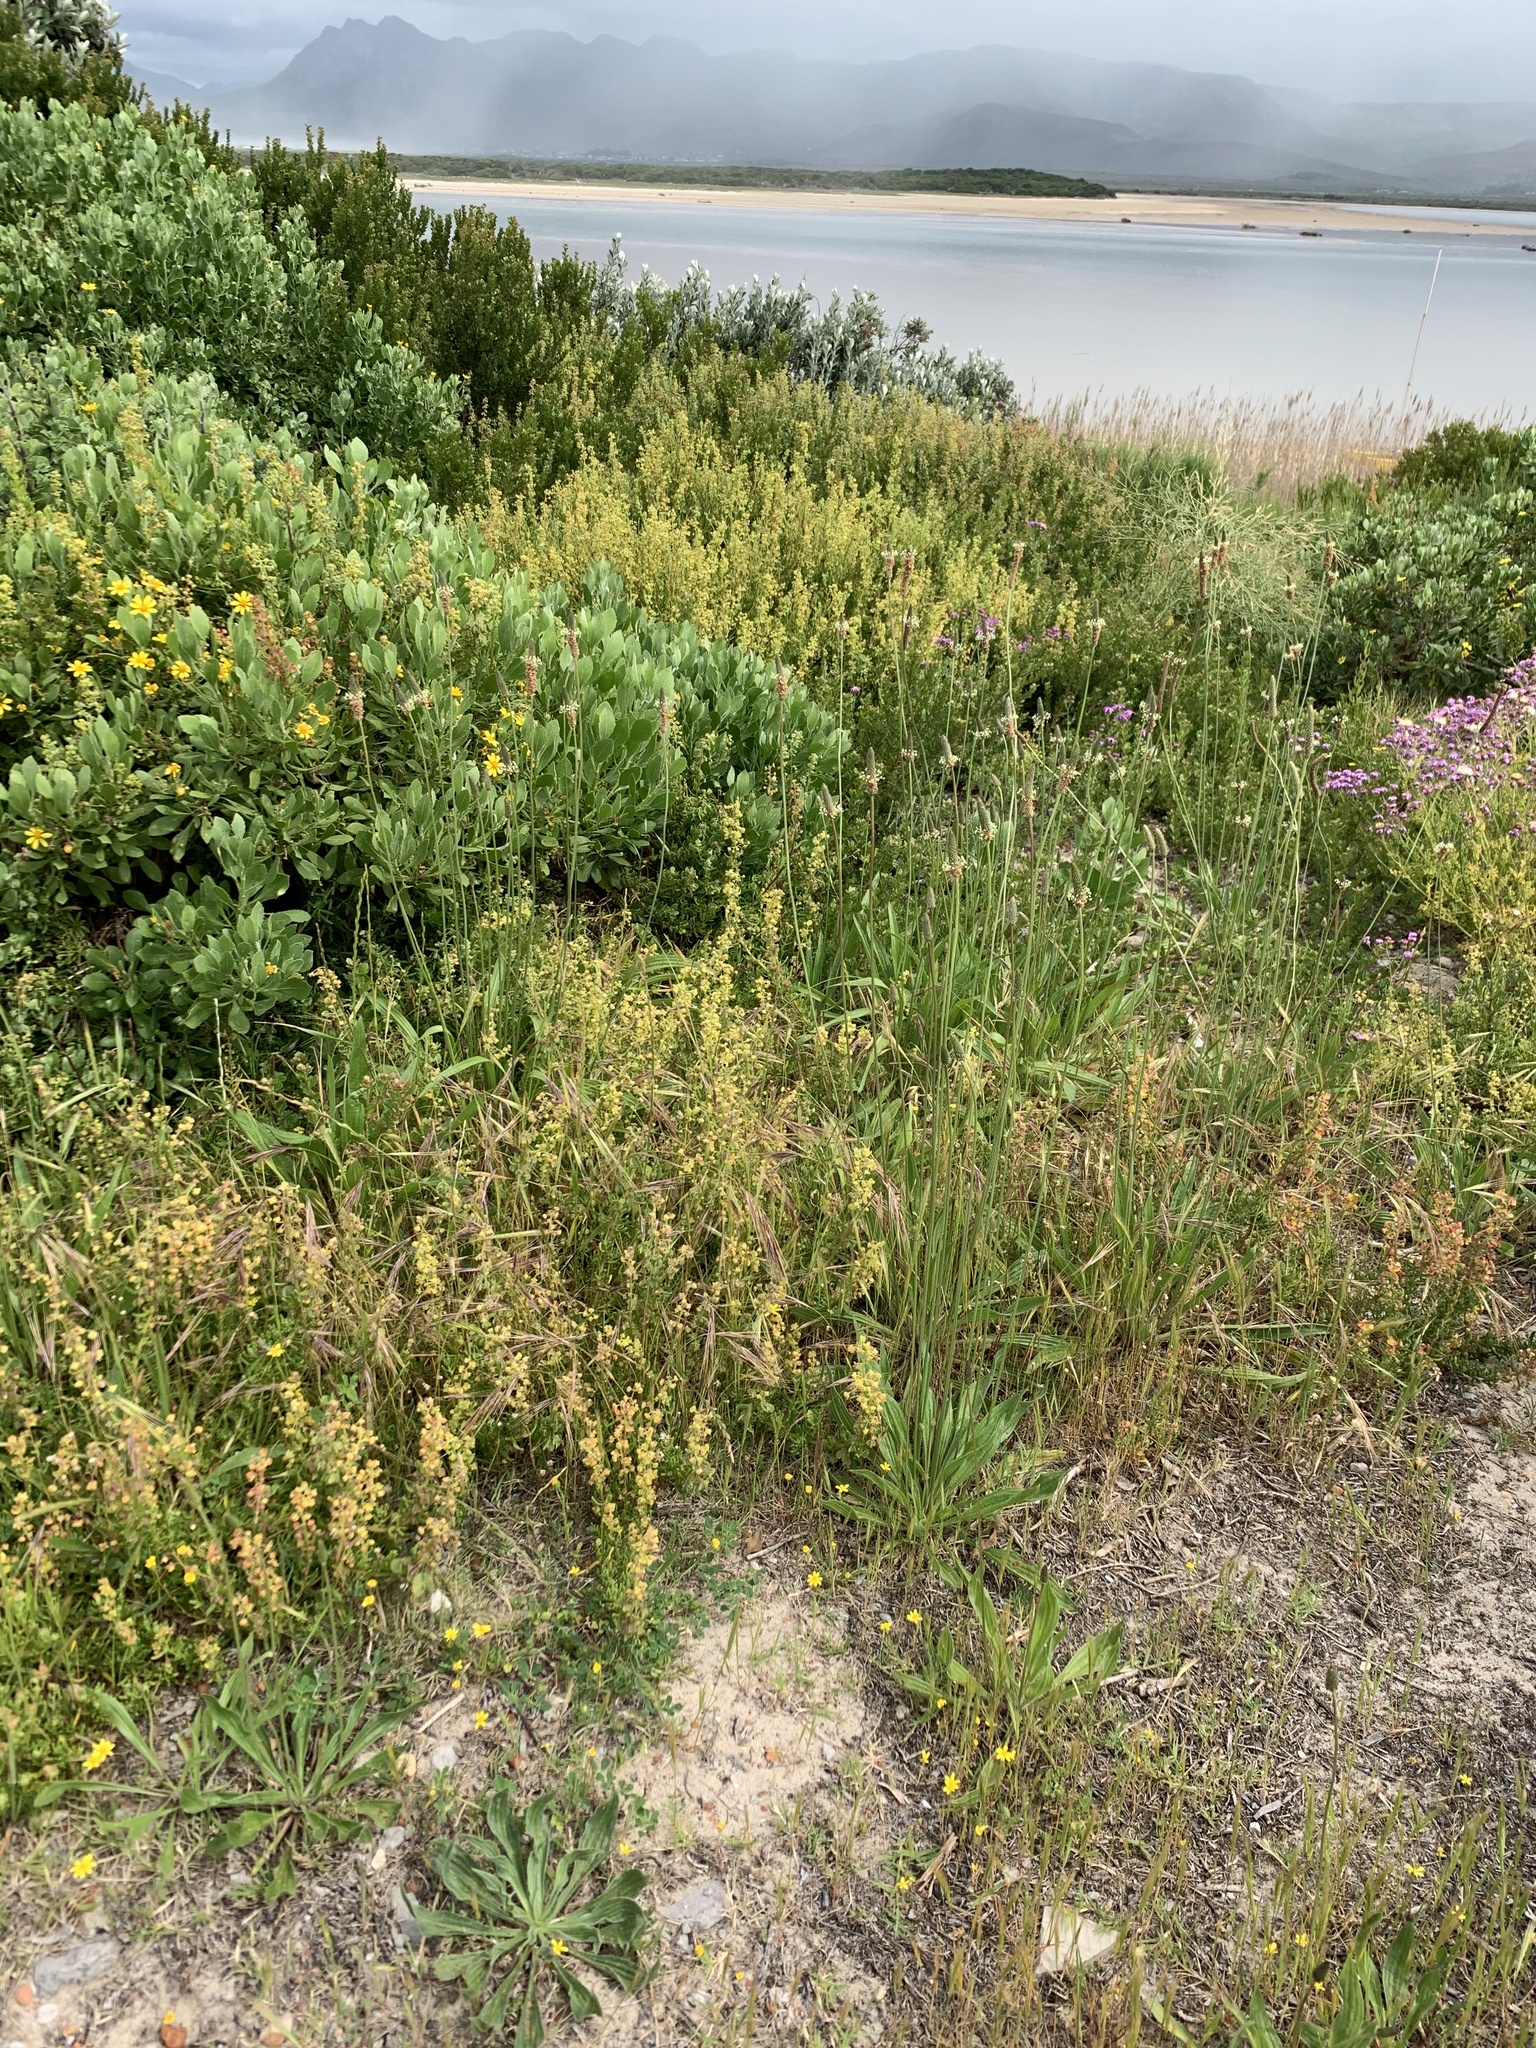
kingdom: Plantae
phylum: Tracheophyta
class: Magnoliopsida
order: Lamiales
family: Plantaginaceae
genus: Plantago
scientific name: Plantago lanceolata
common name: Ribwort plantain
